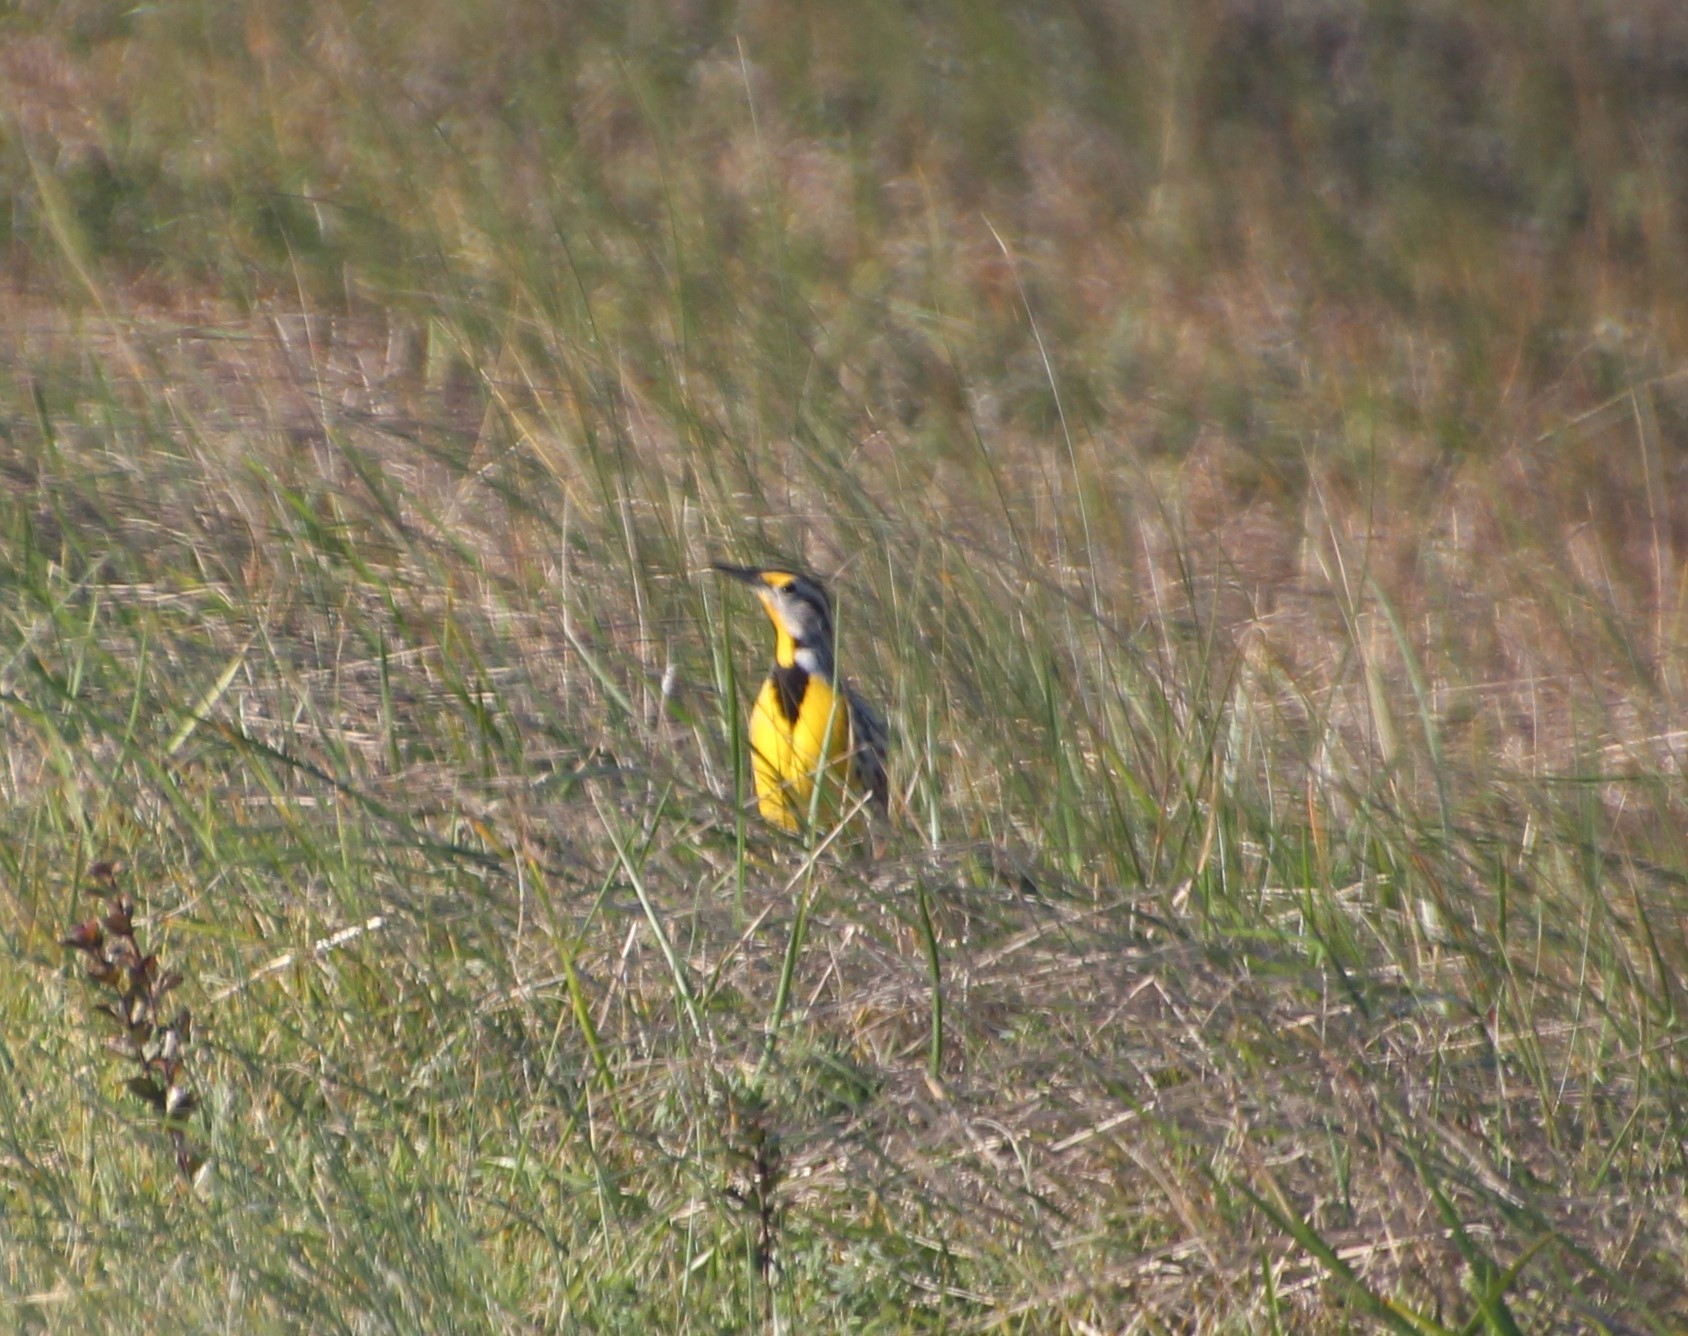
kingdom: Animalia
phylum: Chordata
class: Aves
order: Passeriformes
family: Icteridae
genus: Sturnella
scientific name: Sturnella magna
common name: Eastern meadowlark
